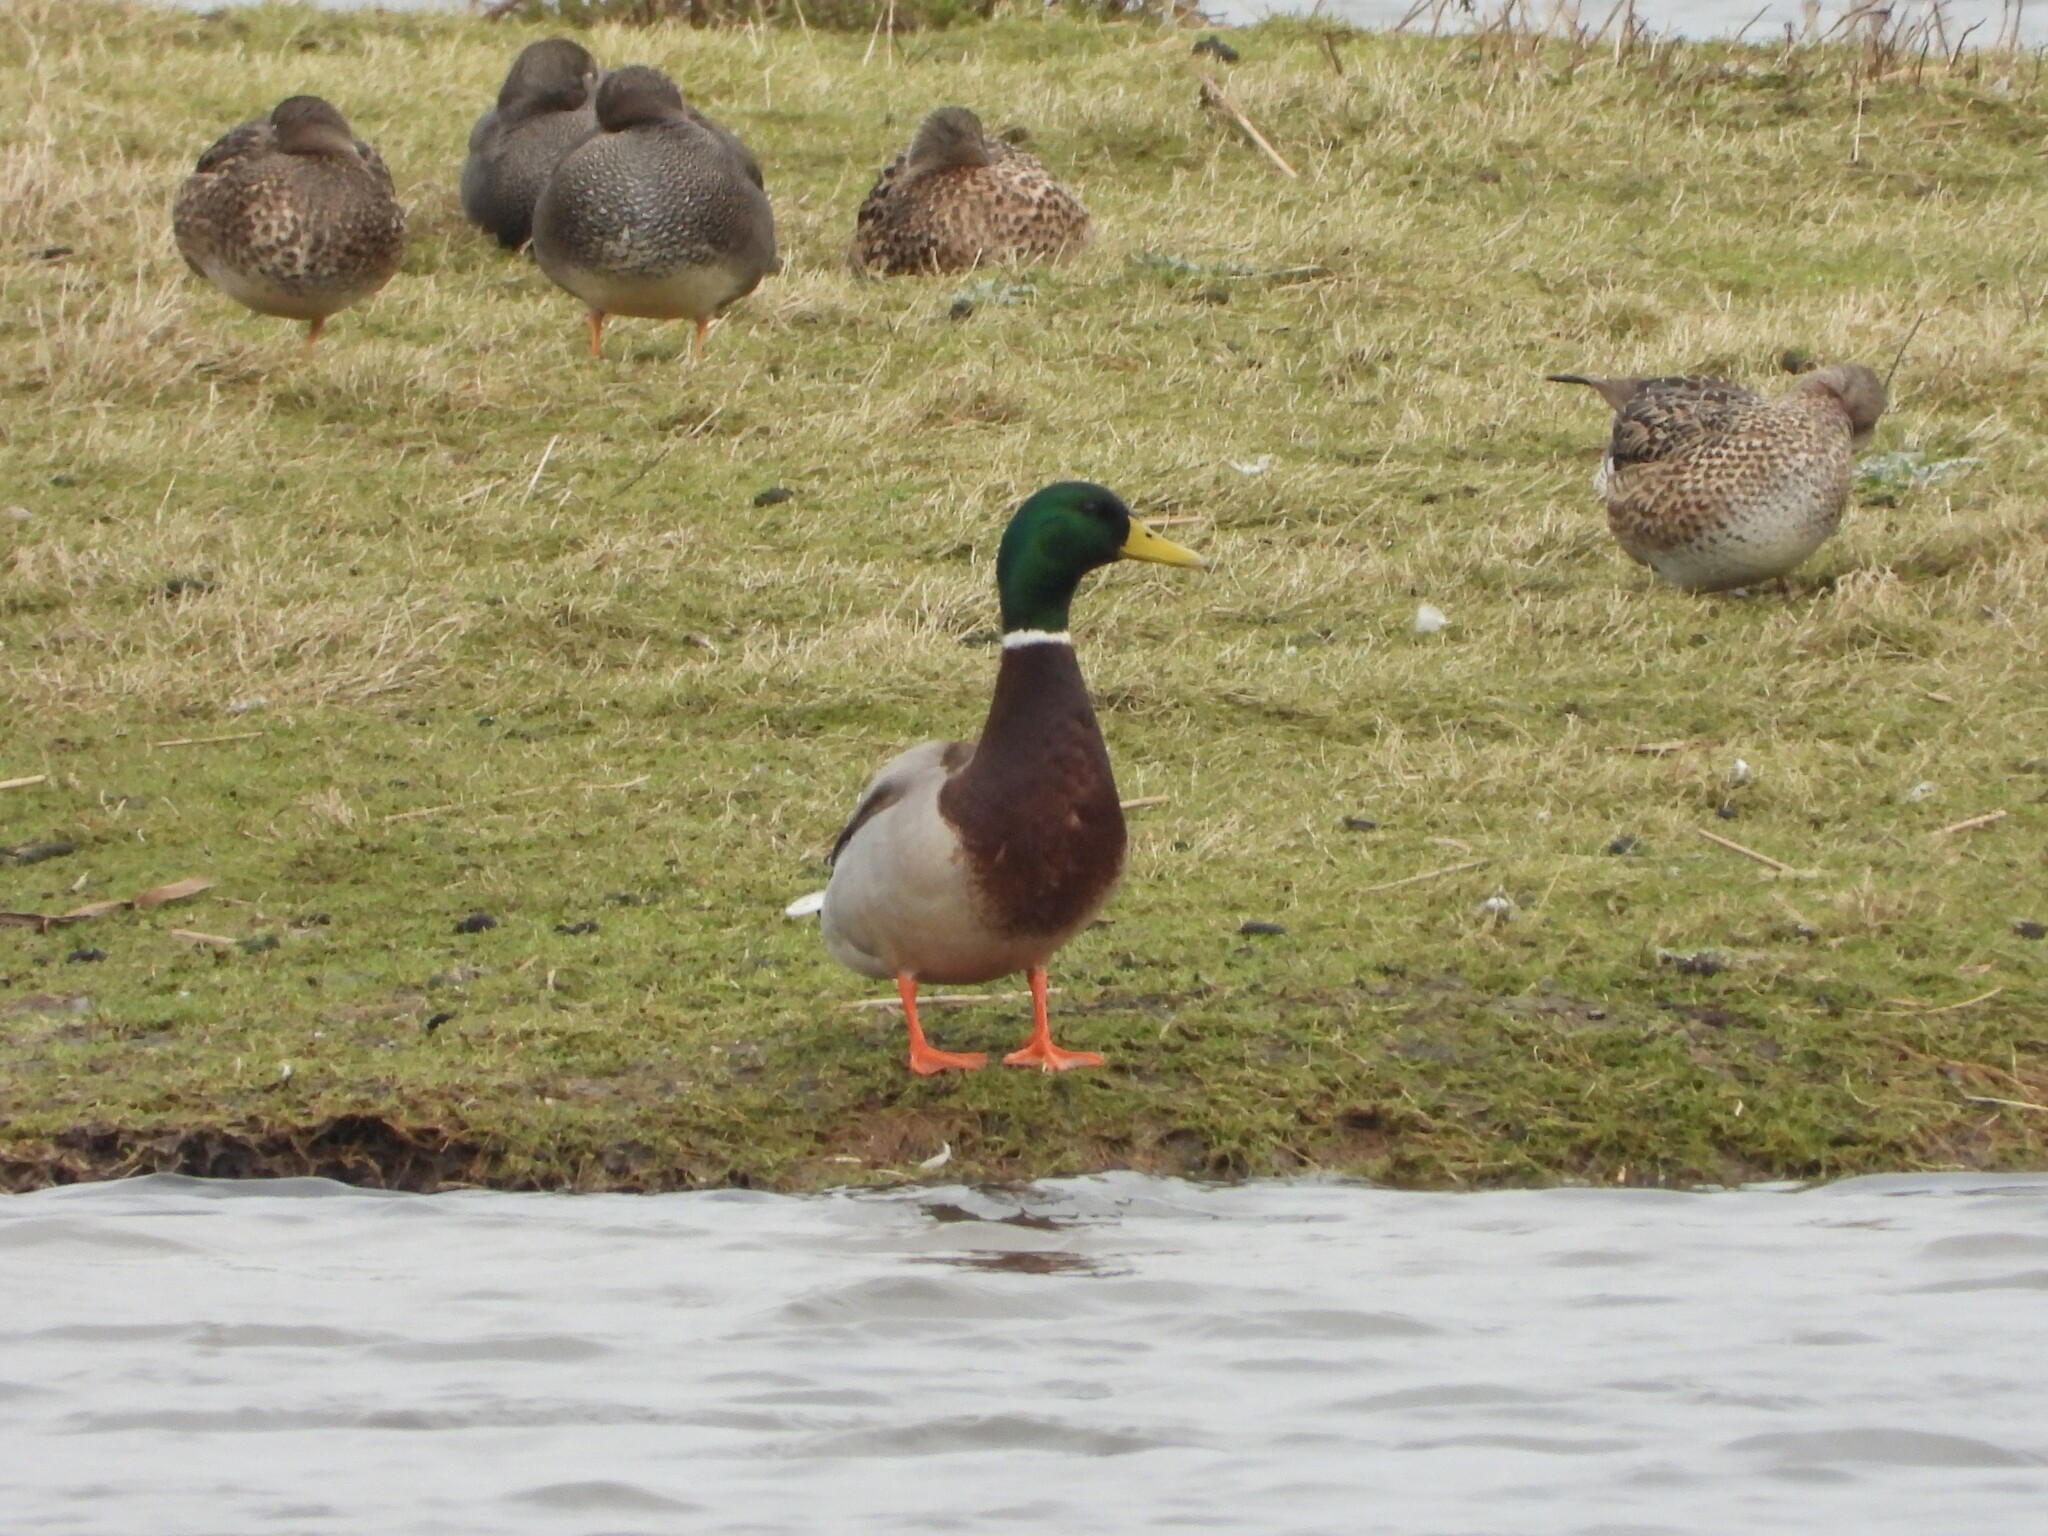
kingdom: Animalia
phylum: Chordata
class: Aves
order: Anseriformes
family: Anatidae
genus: Anas
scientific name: Anas platyrhynchos
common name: Mallard
